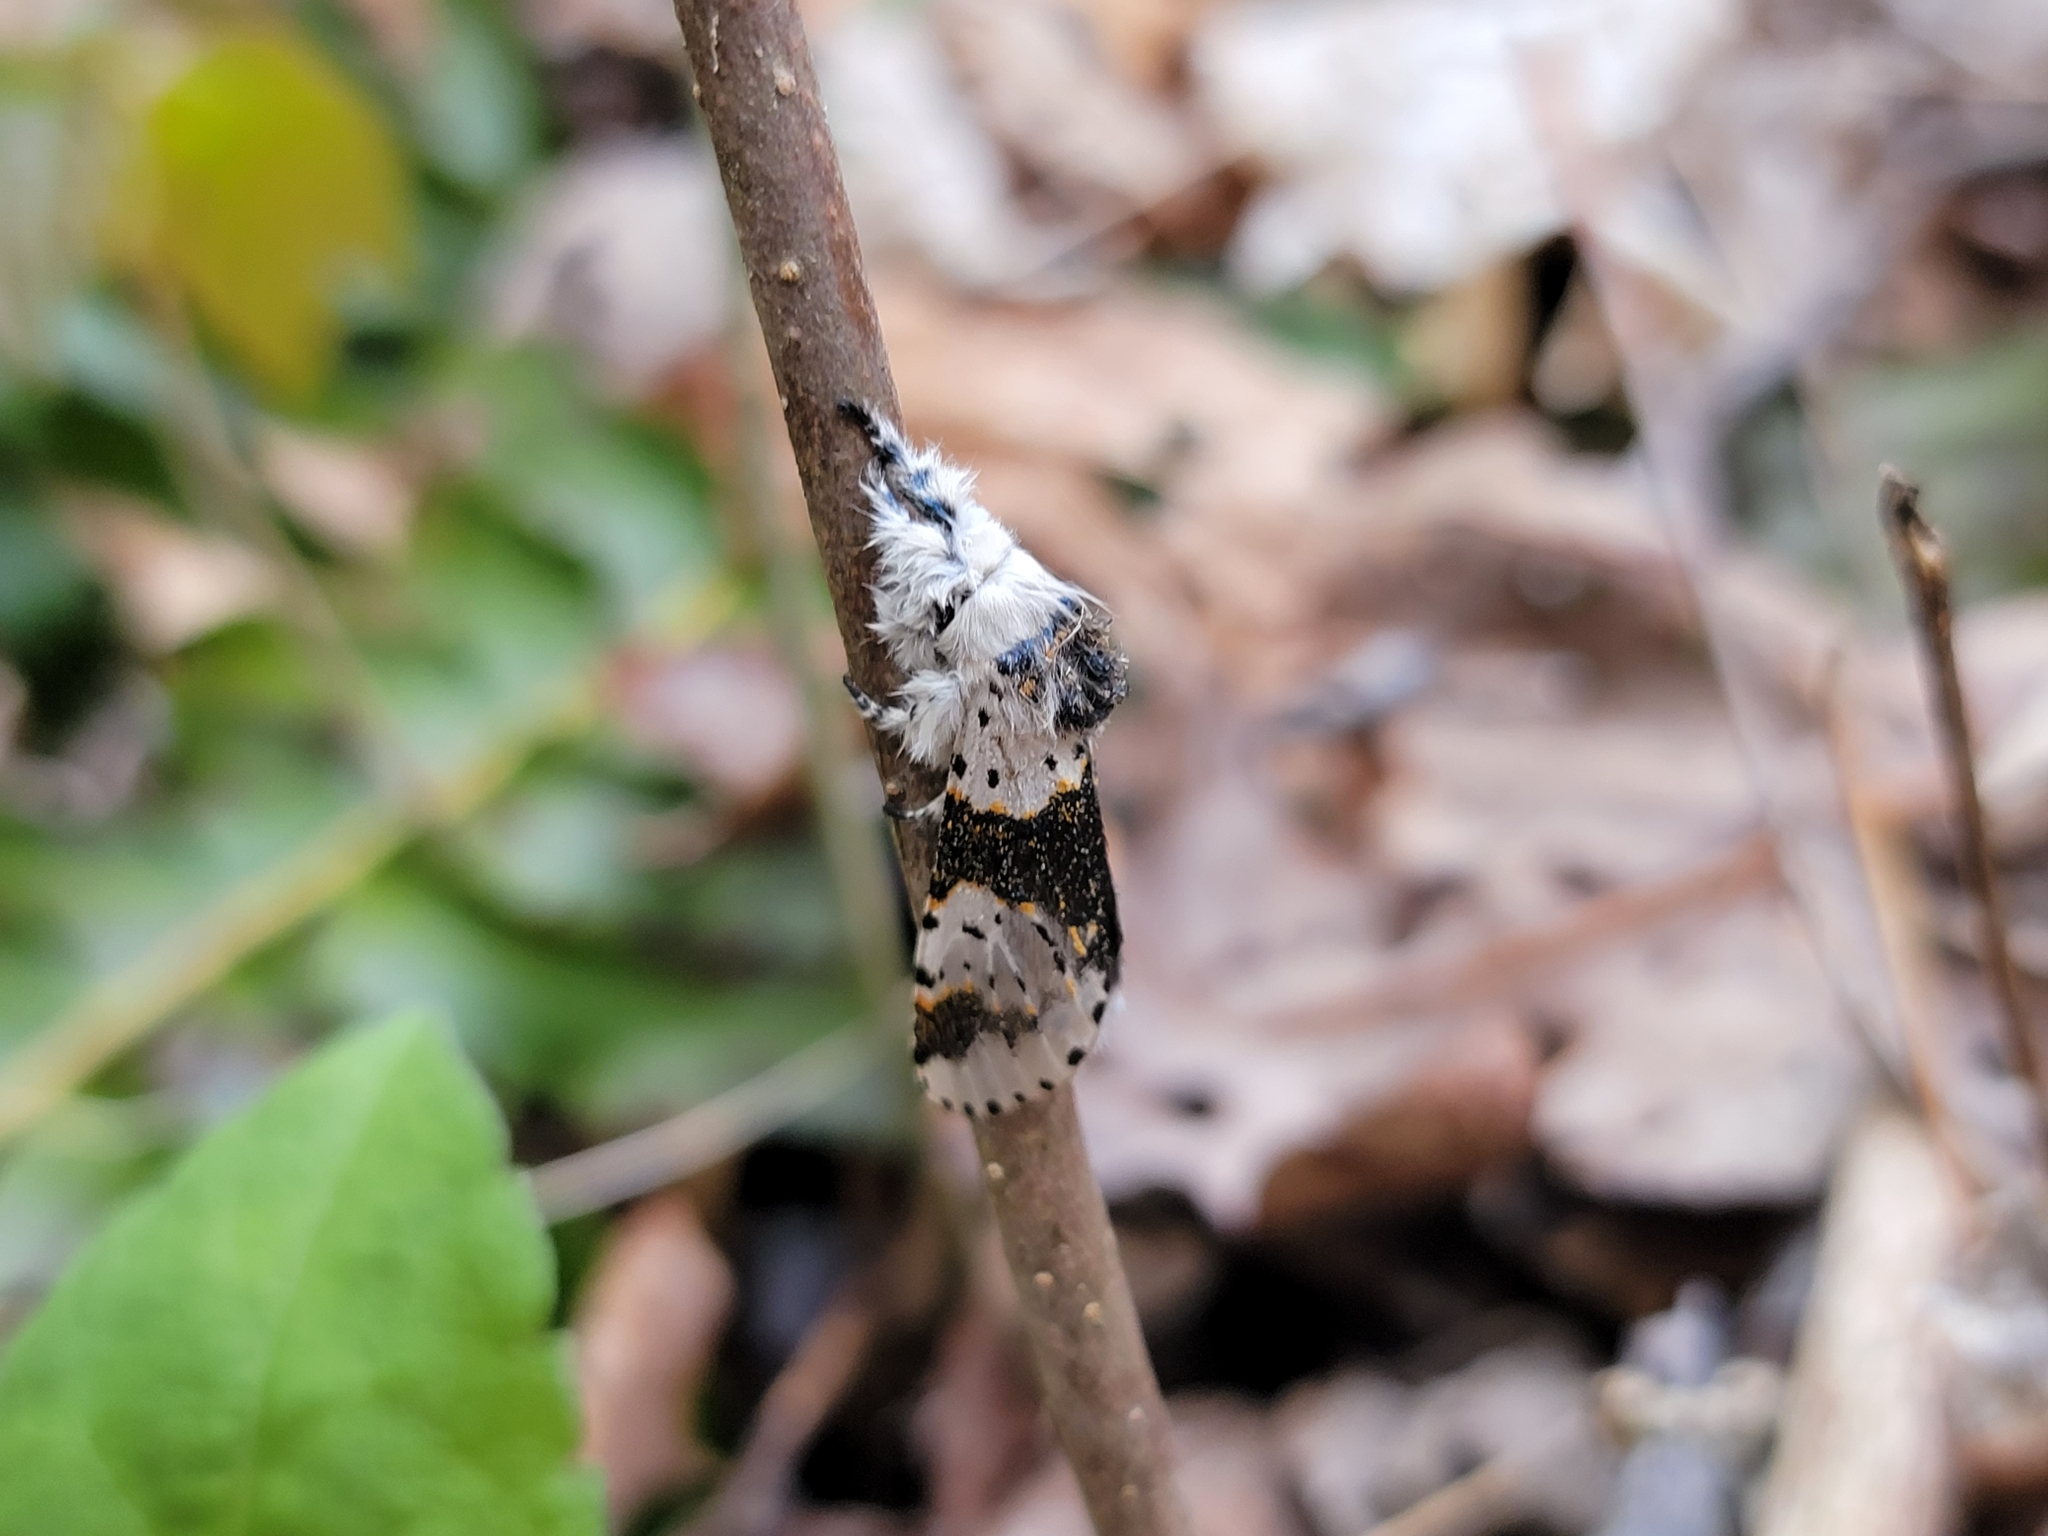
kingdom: Animalia
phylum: Arthropoda
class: Insecta
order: Lepidoptera
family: Notodontidae
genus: Furcula
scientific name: Furcula borealis
